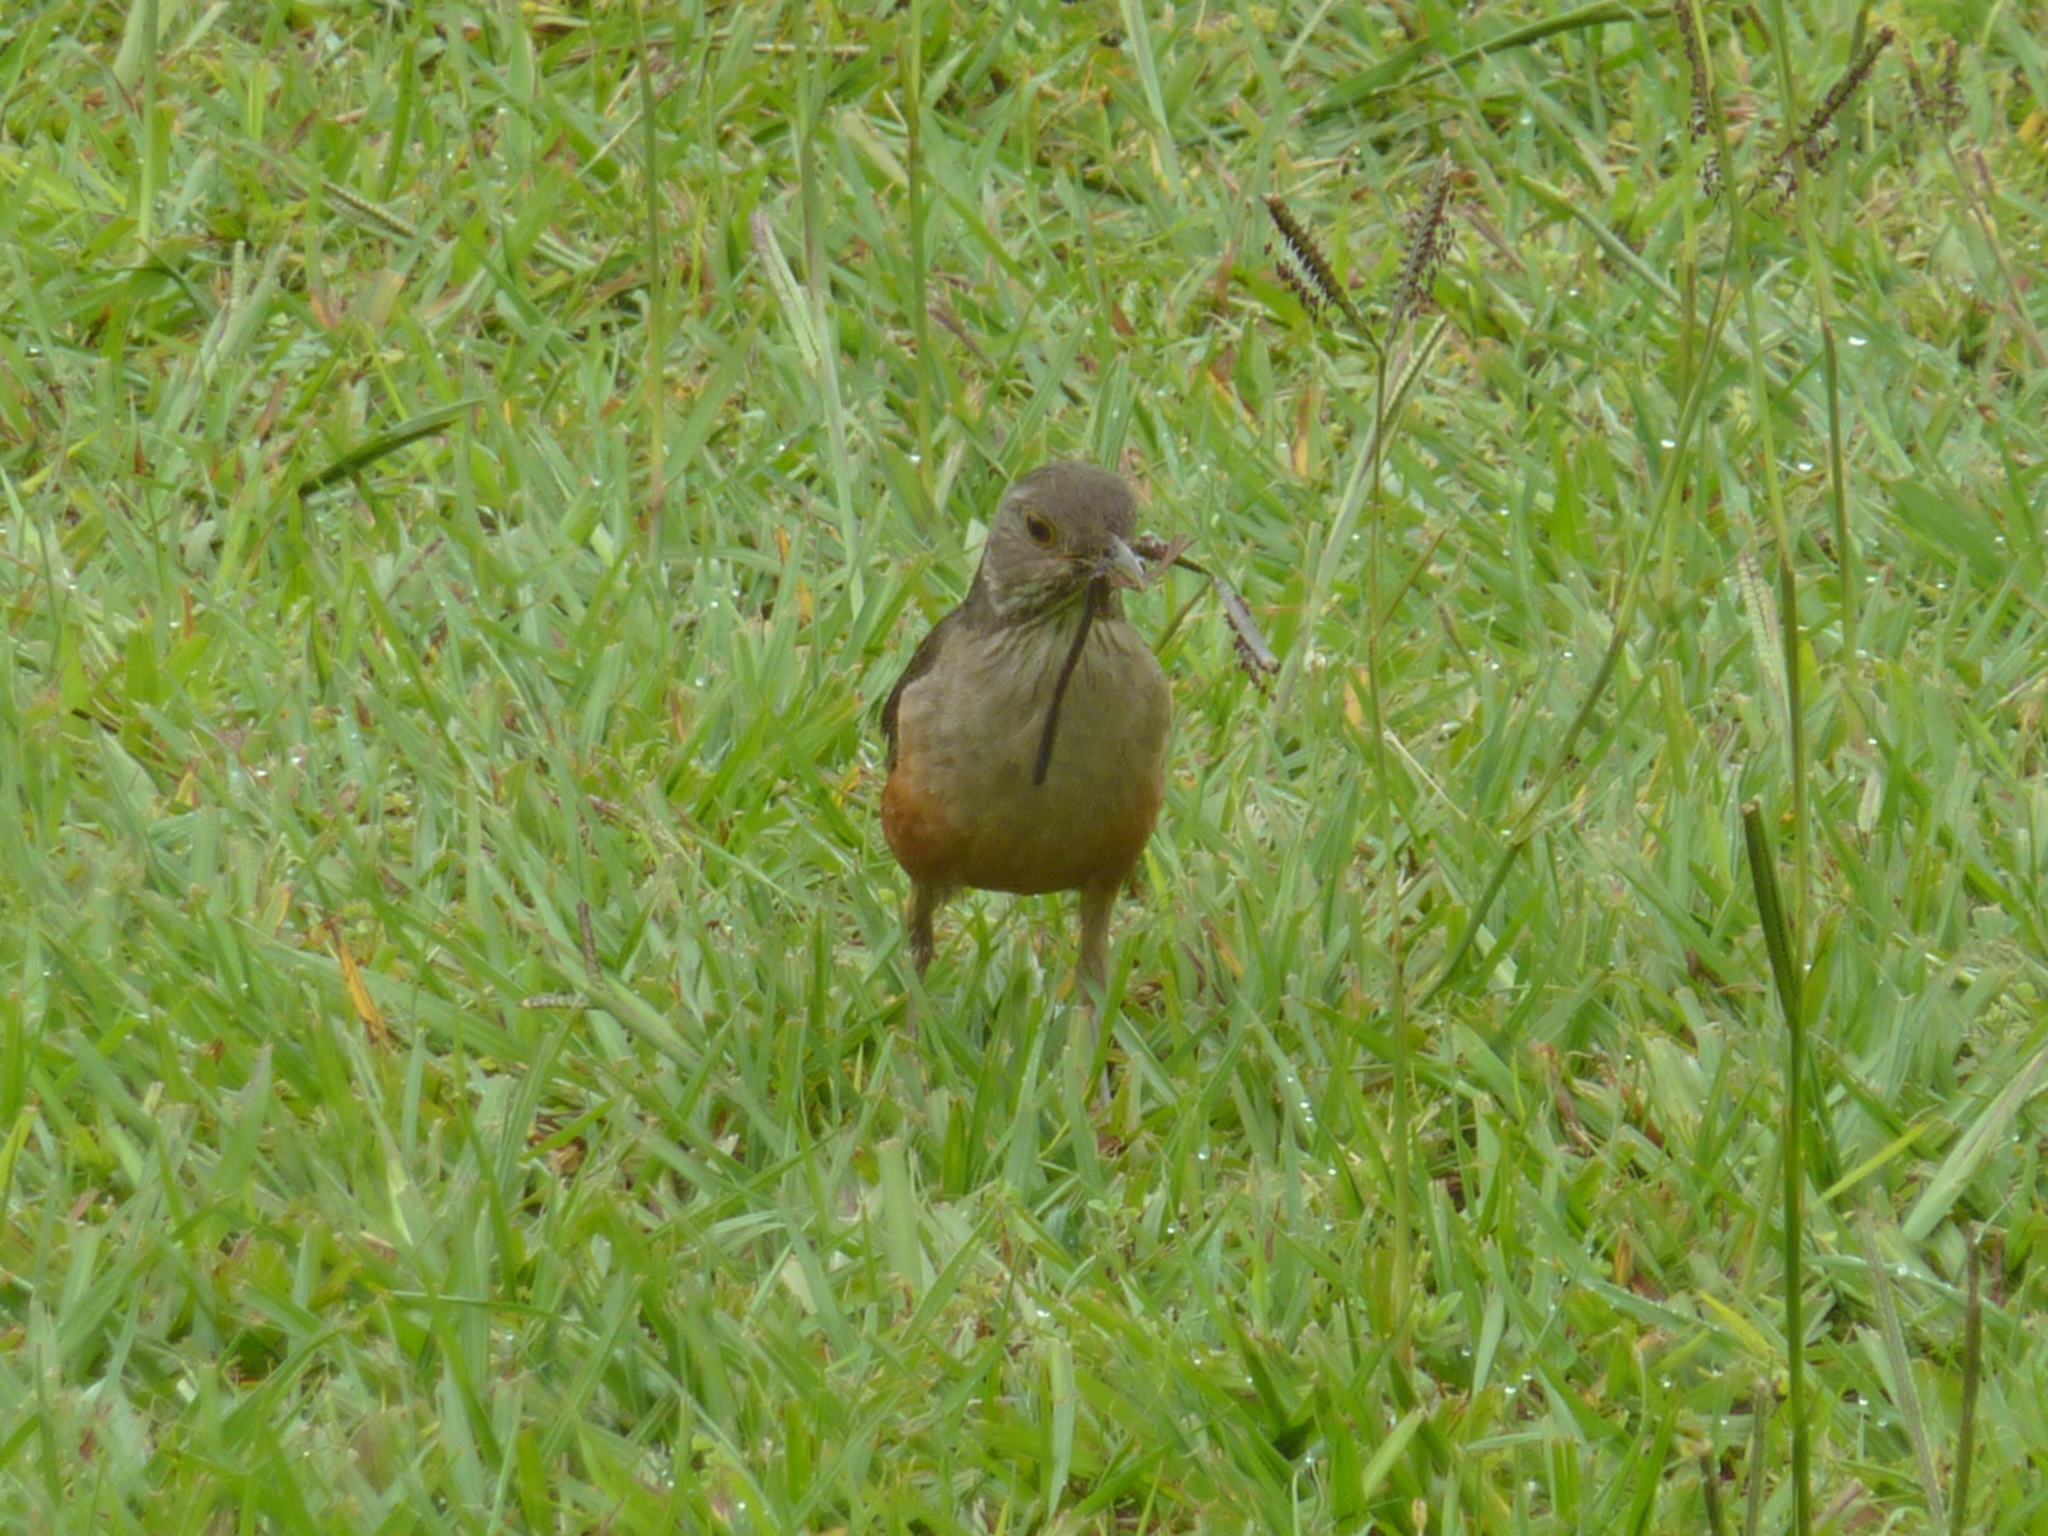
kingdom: Animalia
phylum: Chordata
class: Aves
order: Passeriformes
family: Turdidae
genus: Turdus
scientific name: Turdus rufiventris
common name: Rufous-bellied thrush
